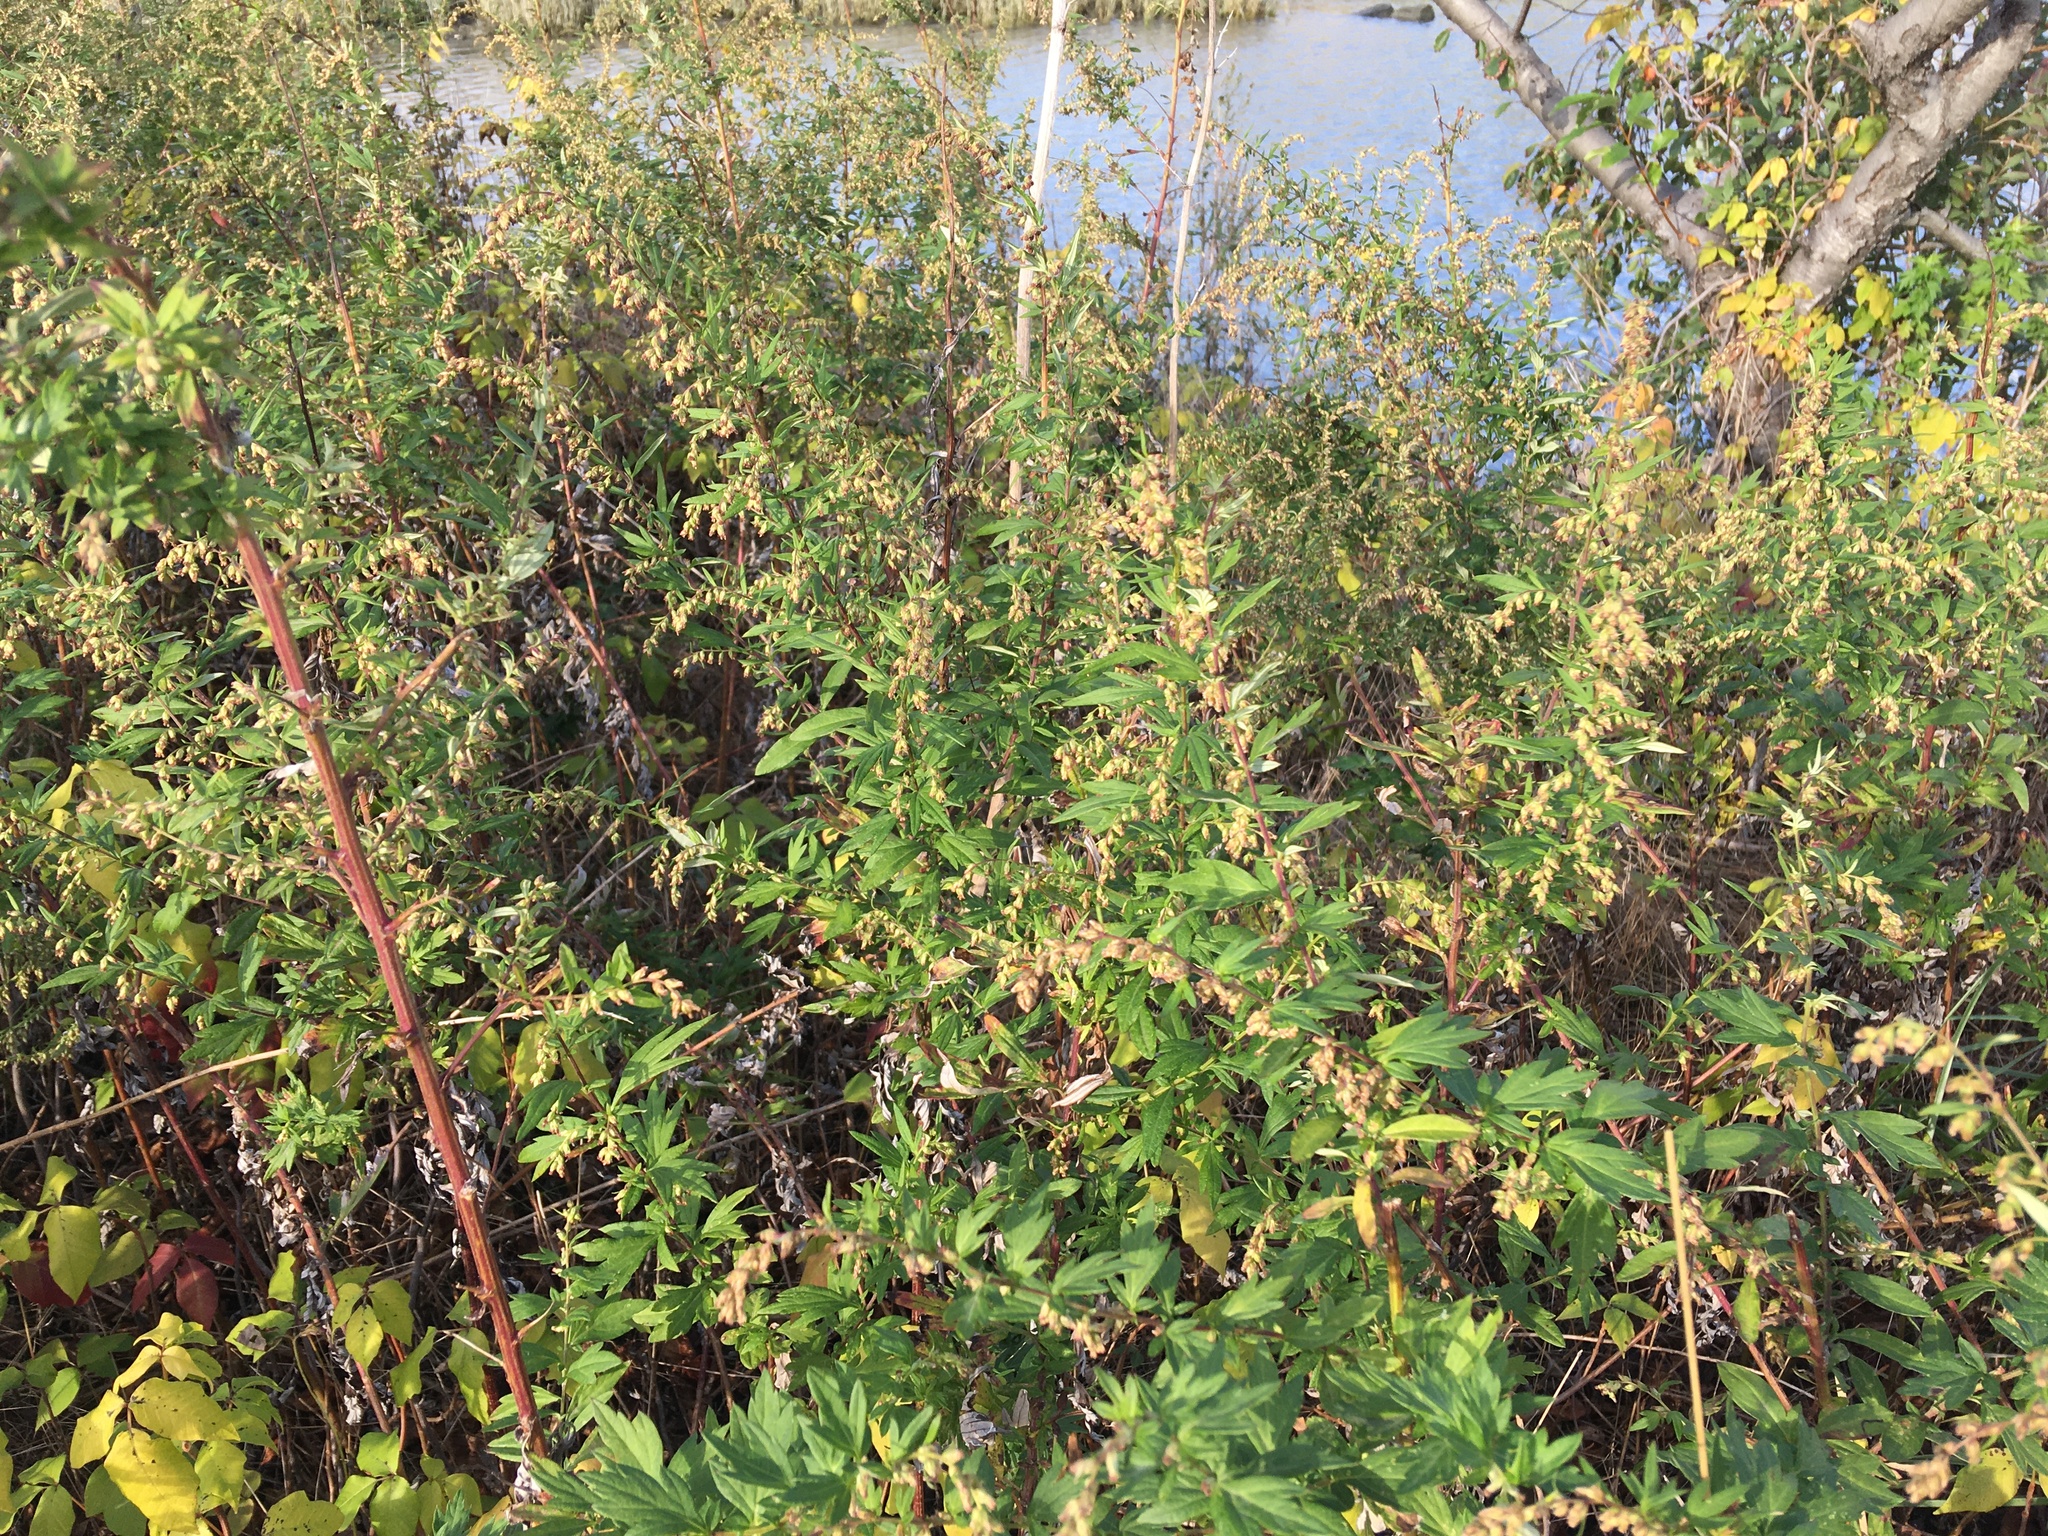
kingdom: Plantae
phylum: Tracheophyta
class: Magnoliopsida
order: Asterales
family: Asteraceae
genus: Artemisia
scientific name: Artemisia vulgaris
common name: Mugwort
